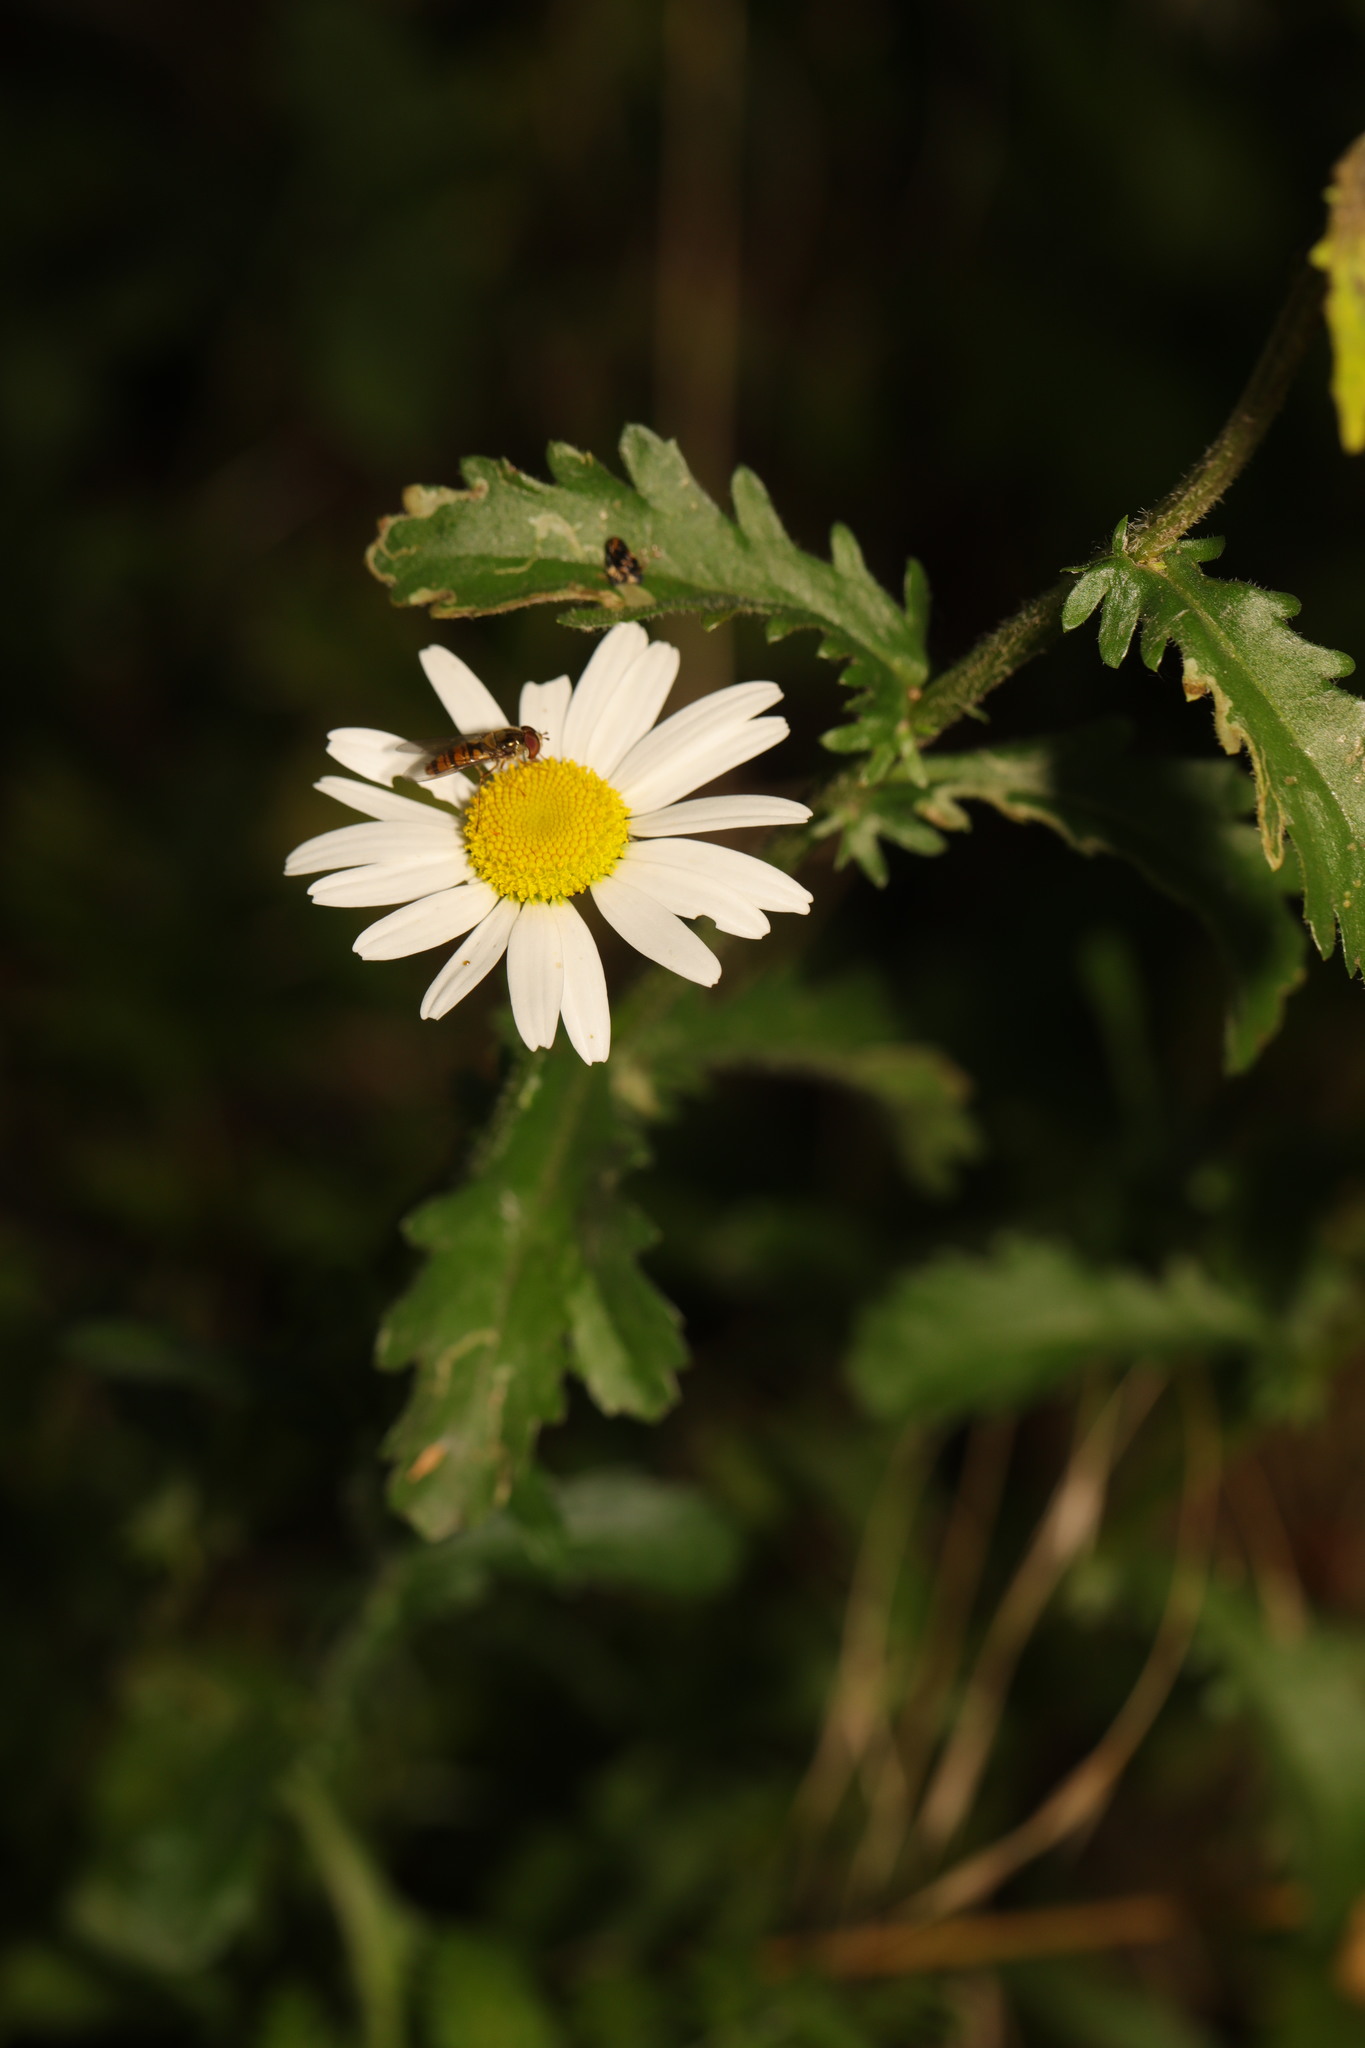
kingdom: Plantae
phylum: Tracheophyta
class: Magnoliopsida
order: Asterales
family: Asteraceae
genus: Leucanthemum
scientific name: Leucanthemum vulgare
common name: Oxeye daisy
